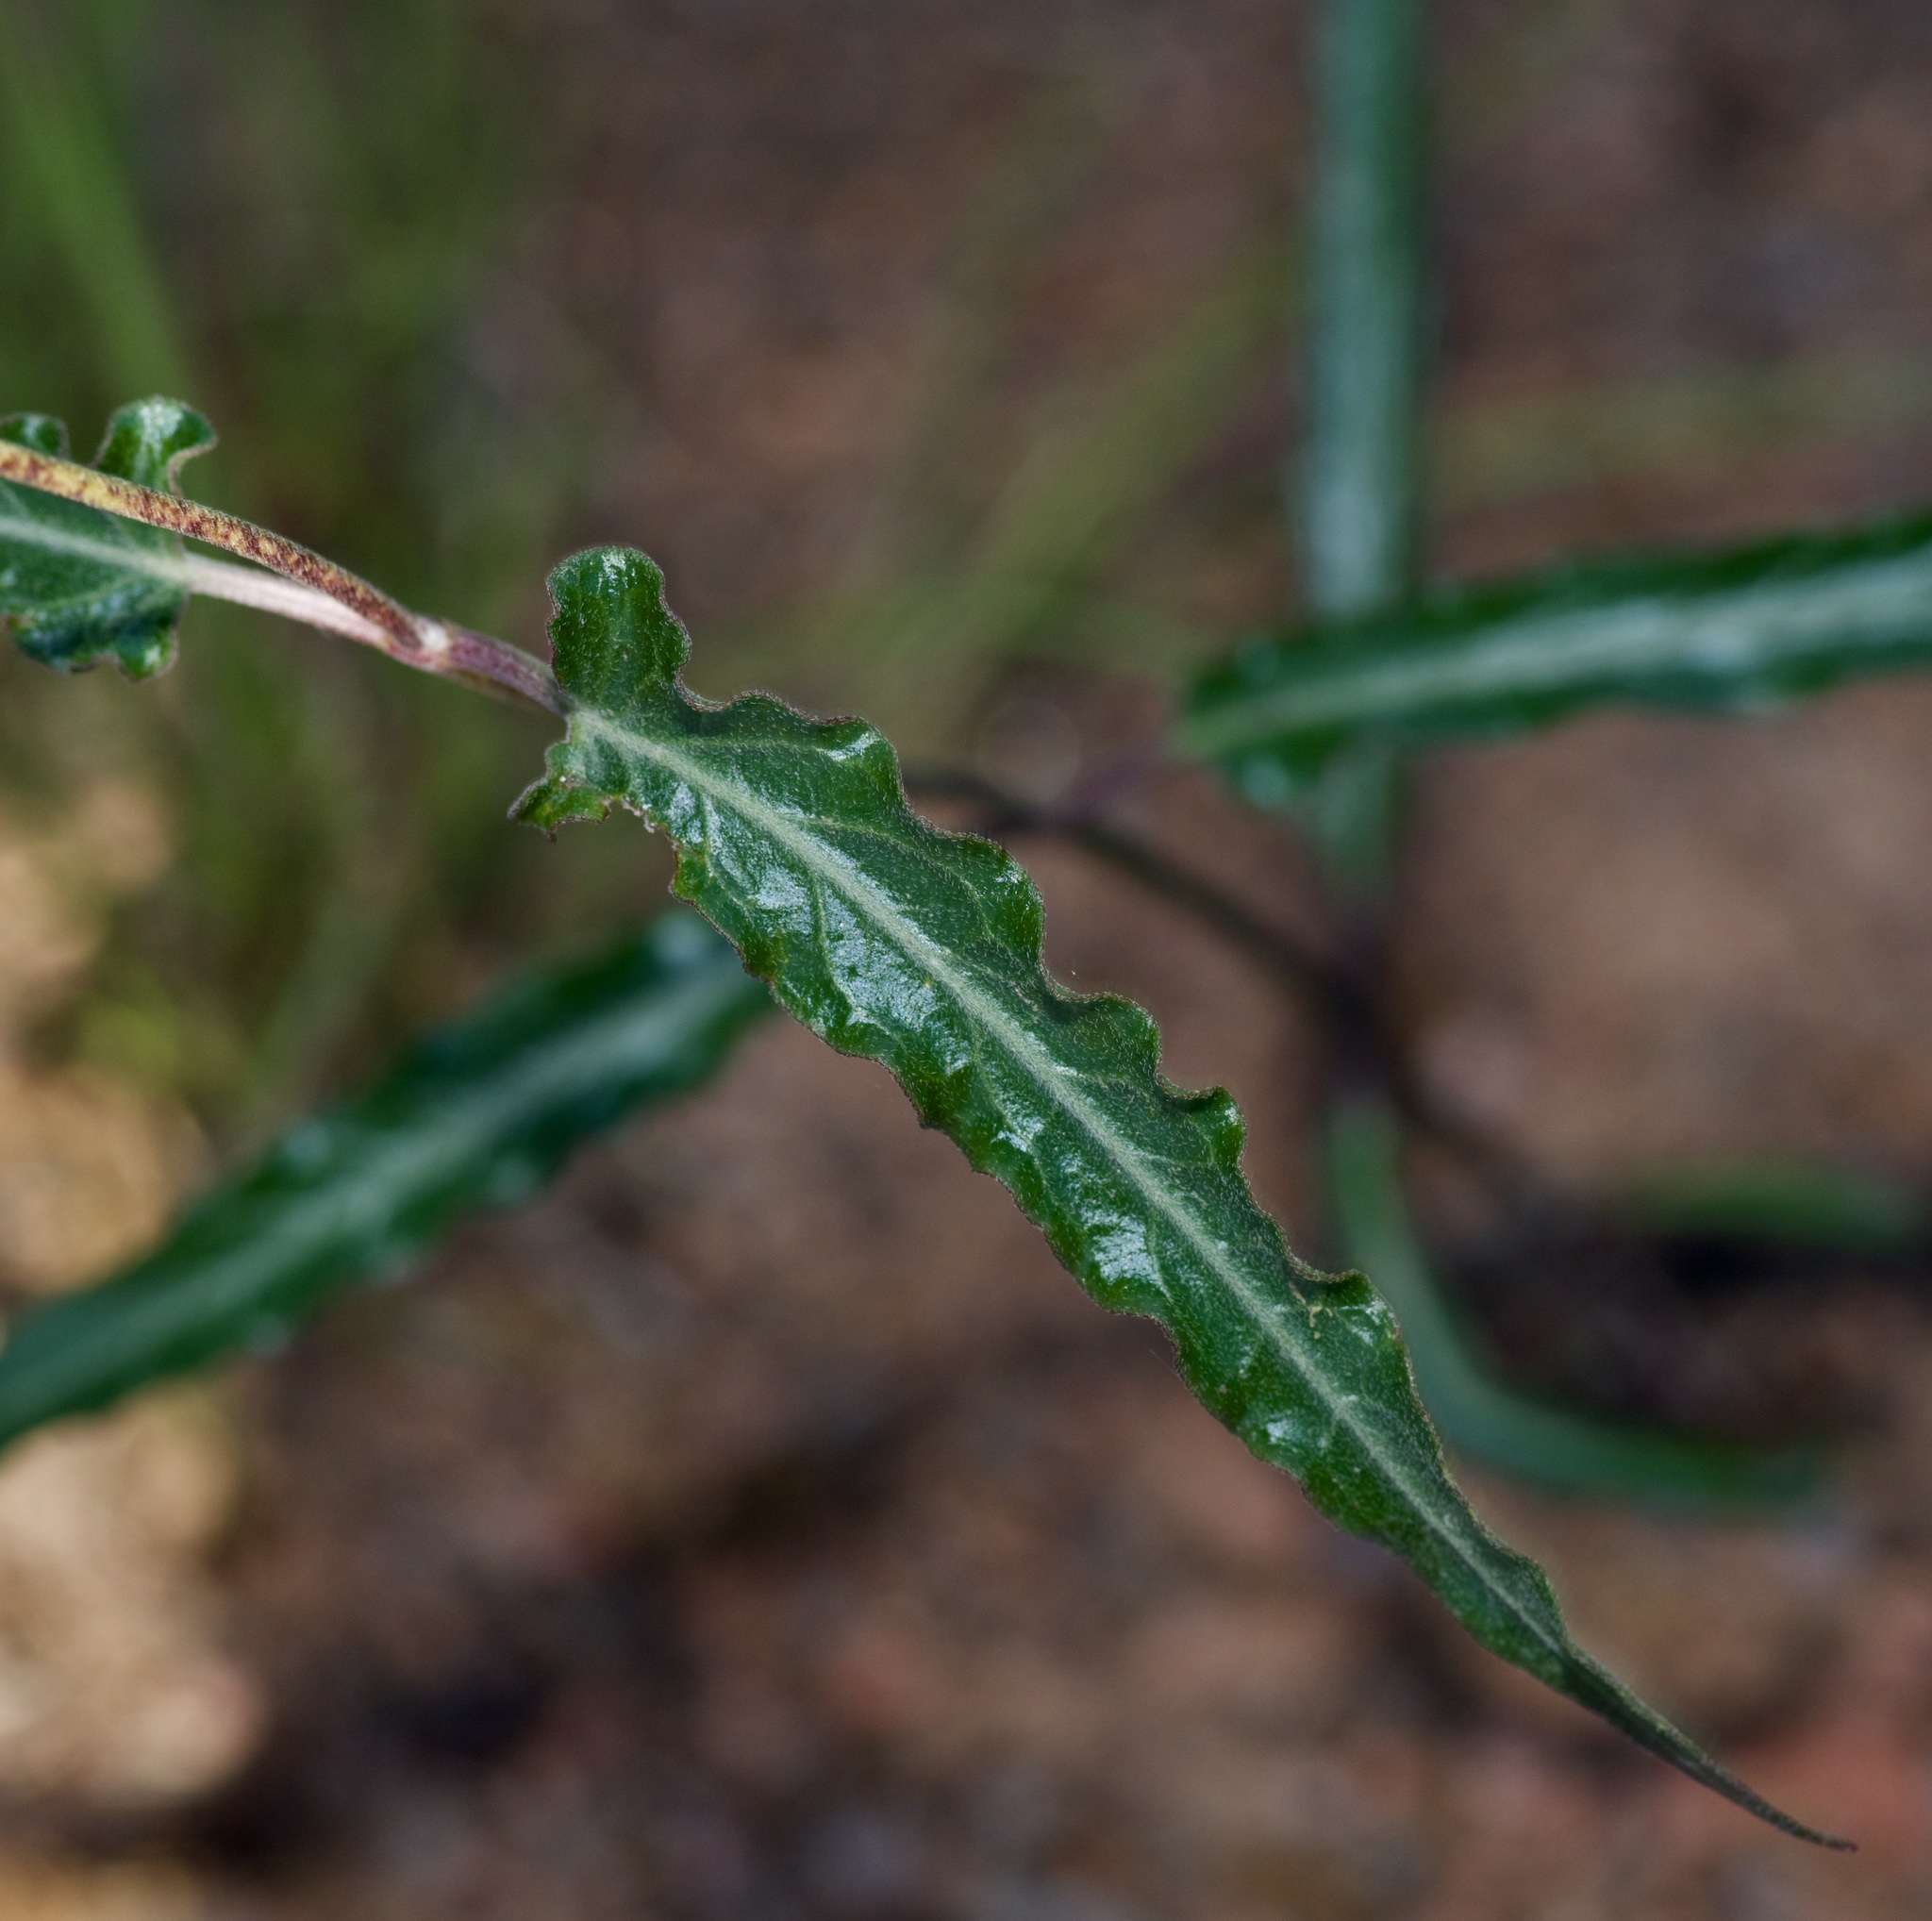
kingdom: Plantae
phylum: Tracheophyta
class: Magnoliopsida
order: Gentianales
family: Apocynaceae
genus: Funastrum
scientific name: Funastrum crispum
